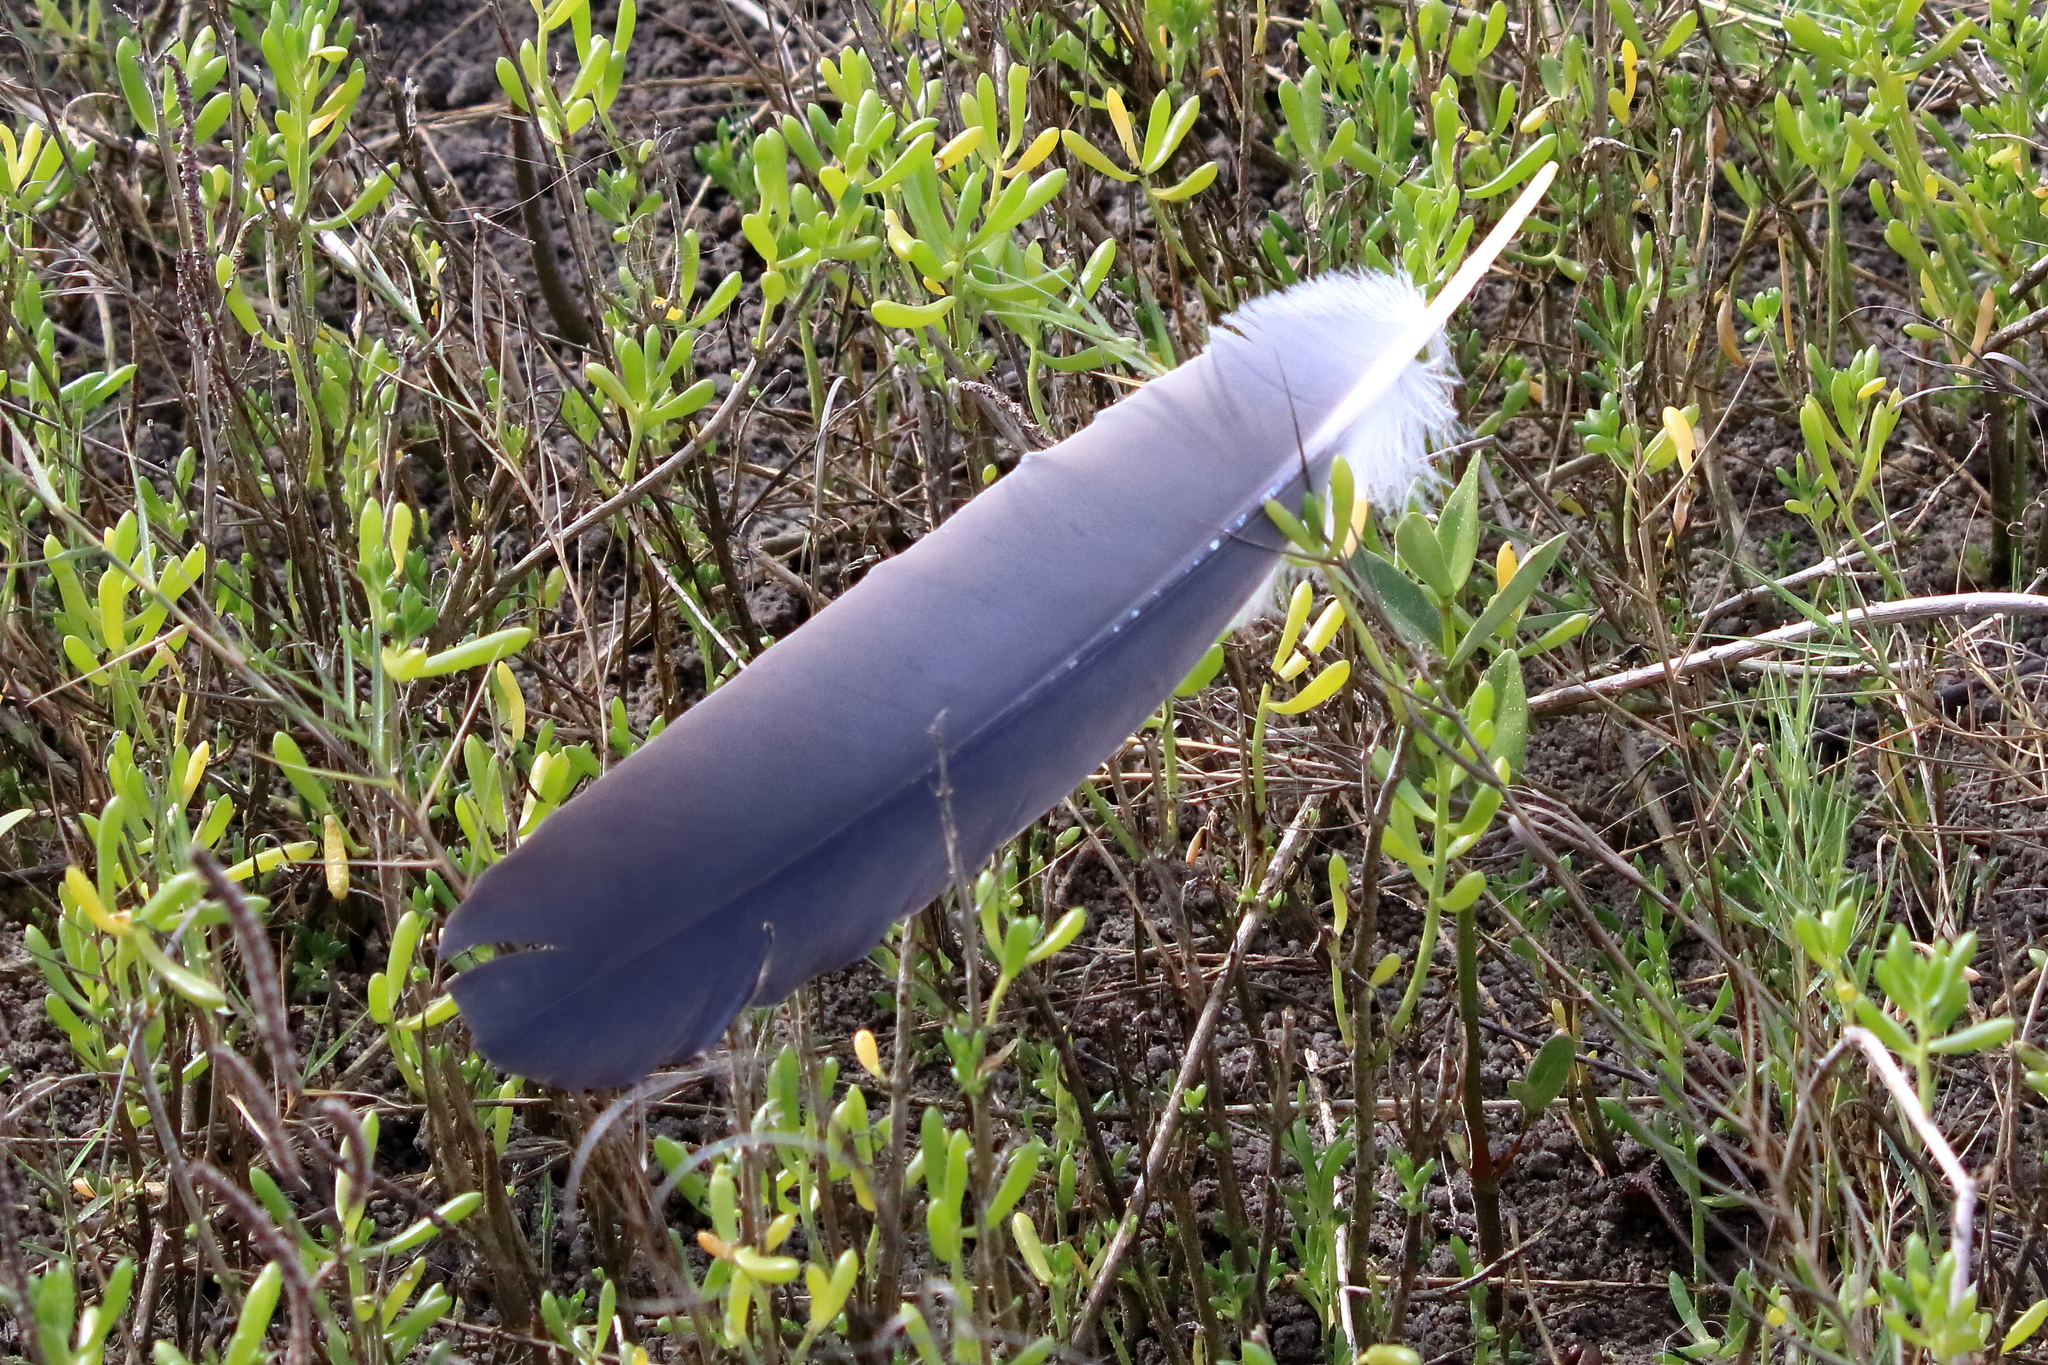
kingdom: Animalia
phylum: Chordata
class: Aves
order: Pelecaniformes
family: Ardeidae
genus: Ardea
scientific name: Ardea herodias
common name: Great blue heron
